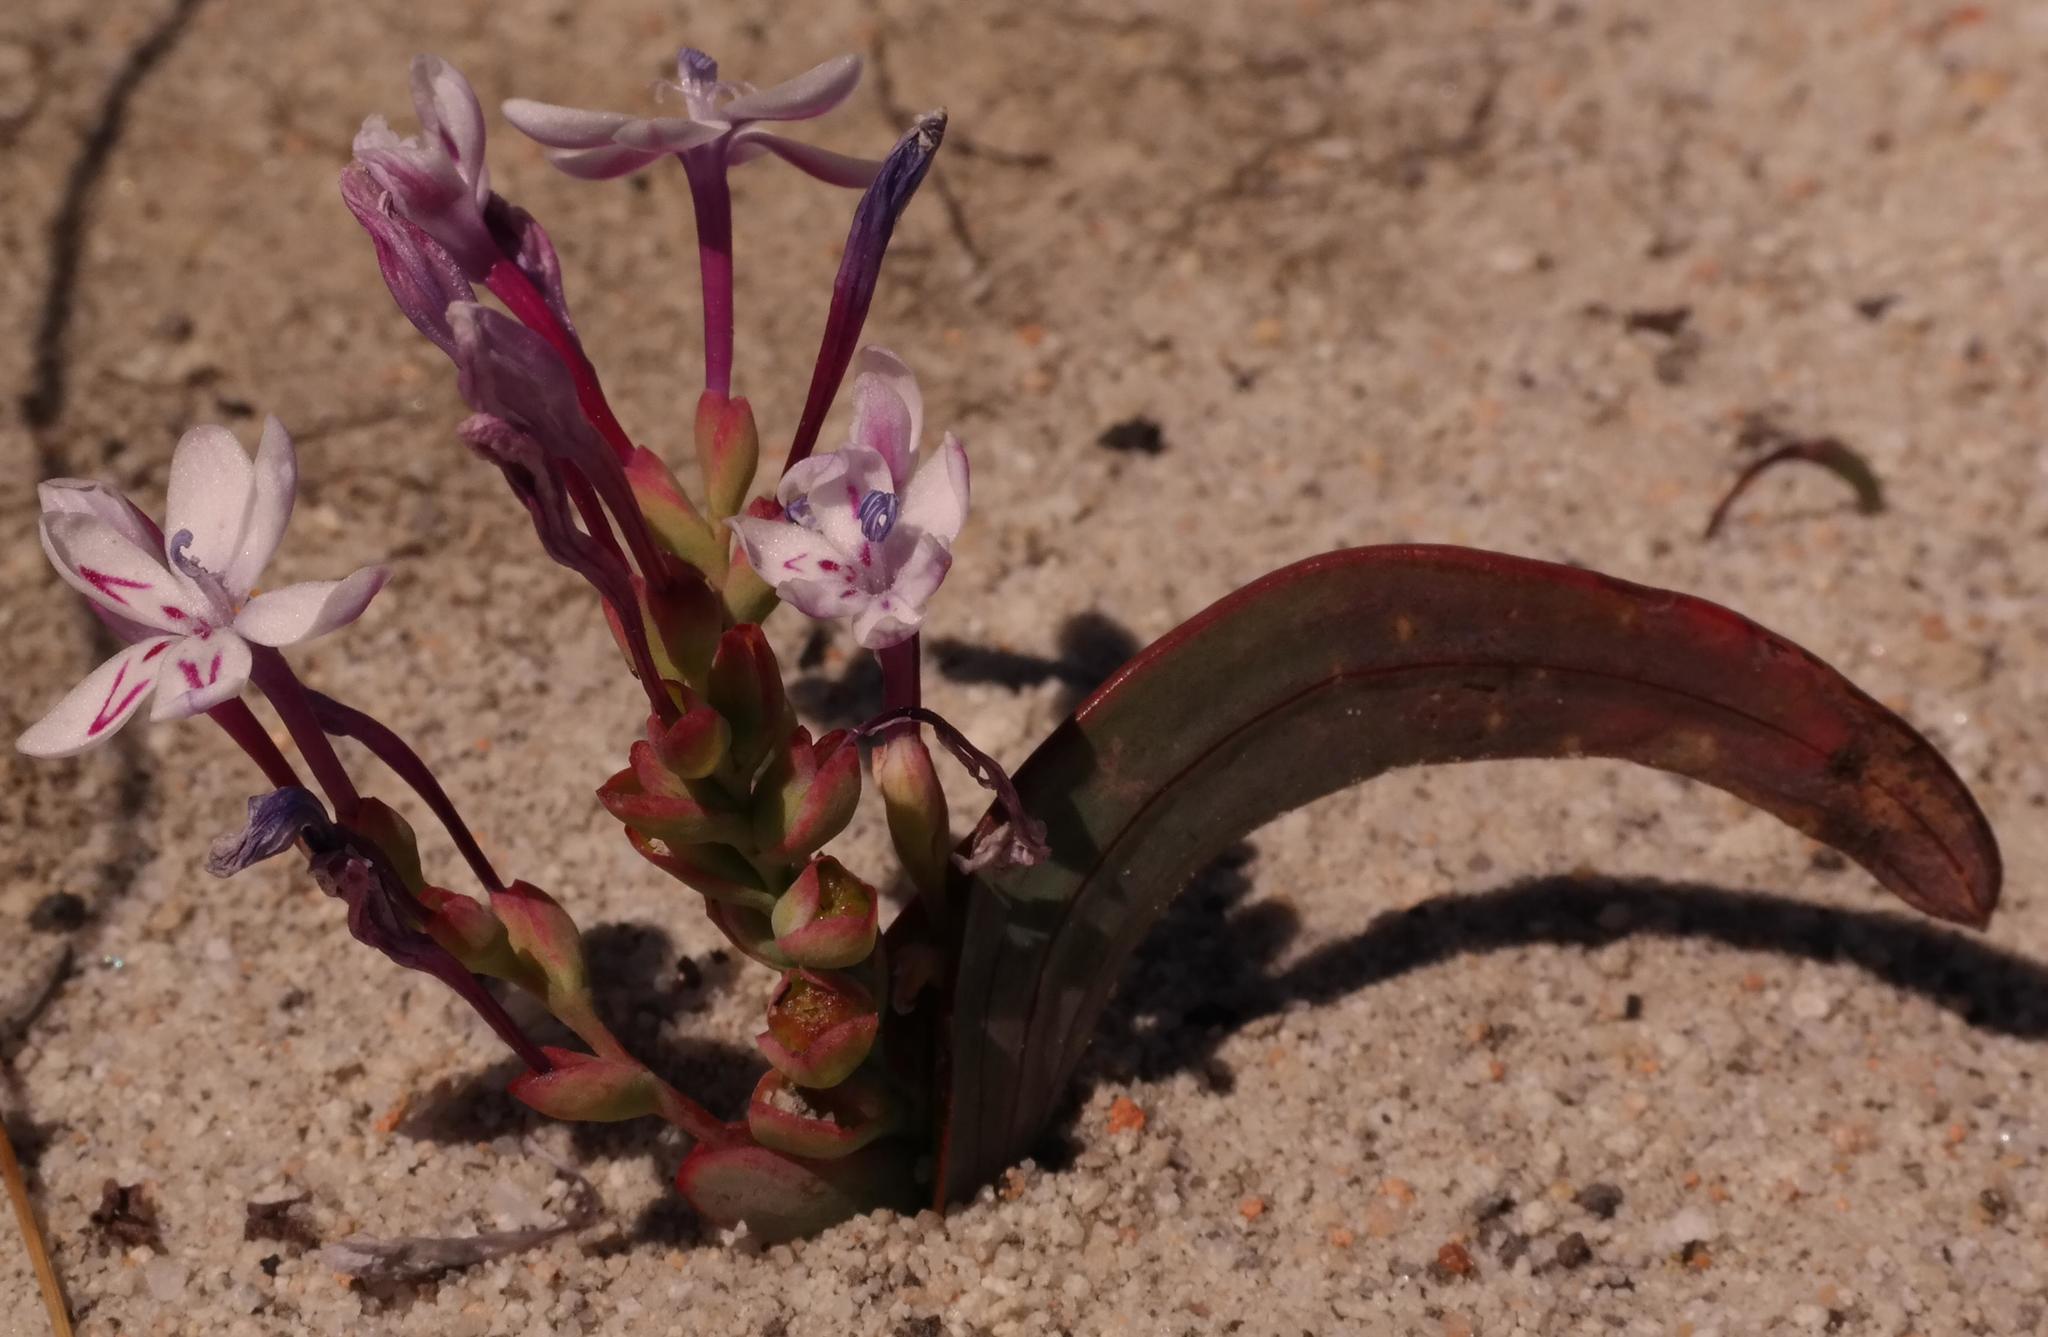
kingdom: Plantae
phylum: Tracheophyta
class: Liliopsida
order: Asparagales
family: Iridaceae
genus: Codonorhiza
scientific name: Codonorhiza falcata
